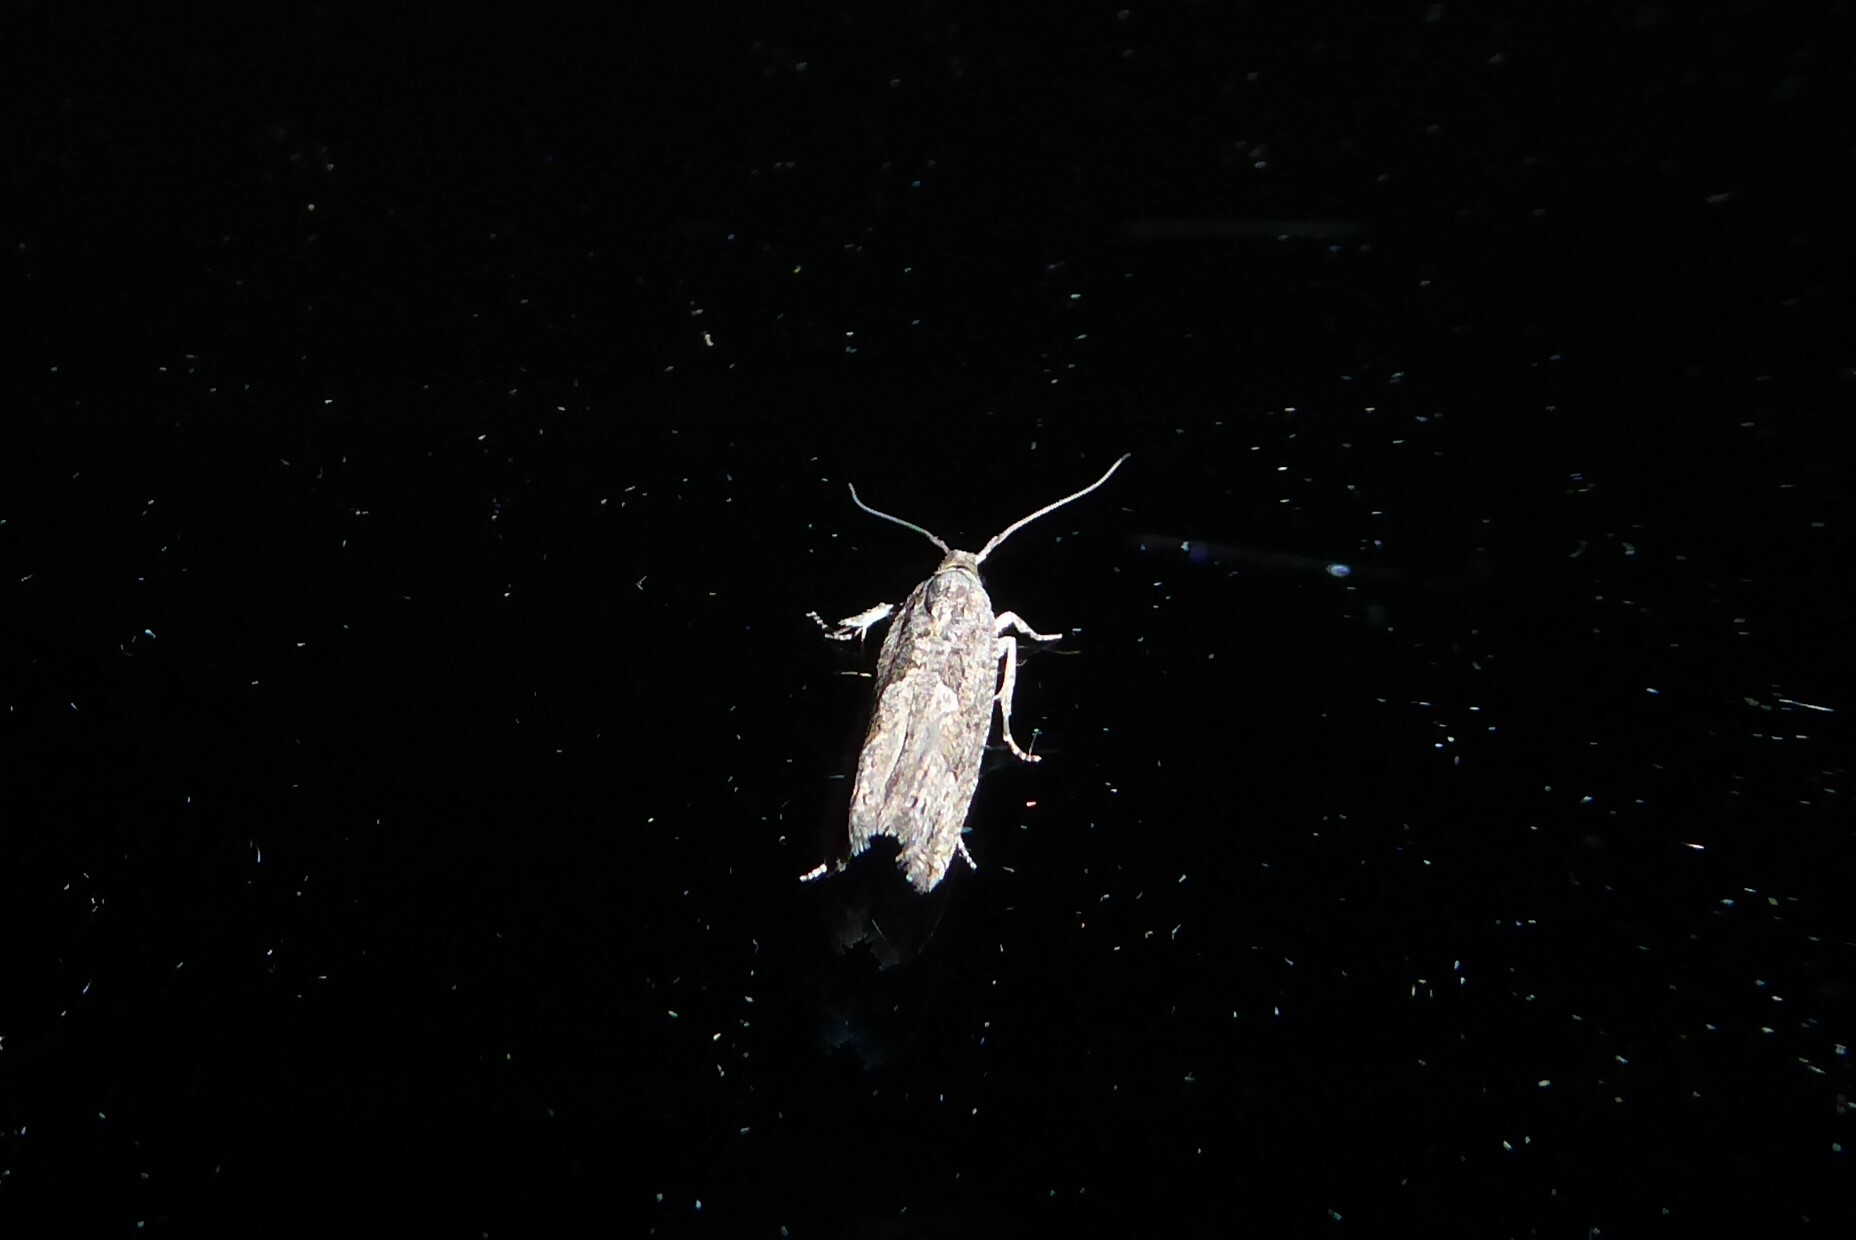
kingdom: Animalia
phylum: Arthropoda
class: Insecta
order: Lepidoptera
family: Tortricidae
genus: Strepsicrates
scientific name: Strepsicrates ejectana
